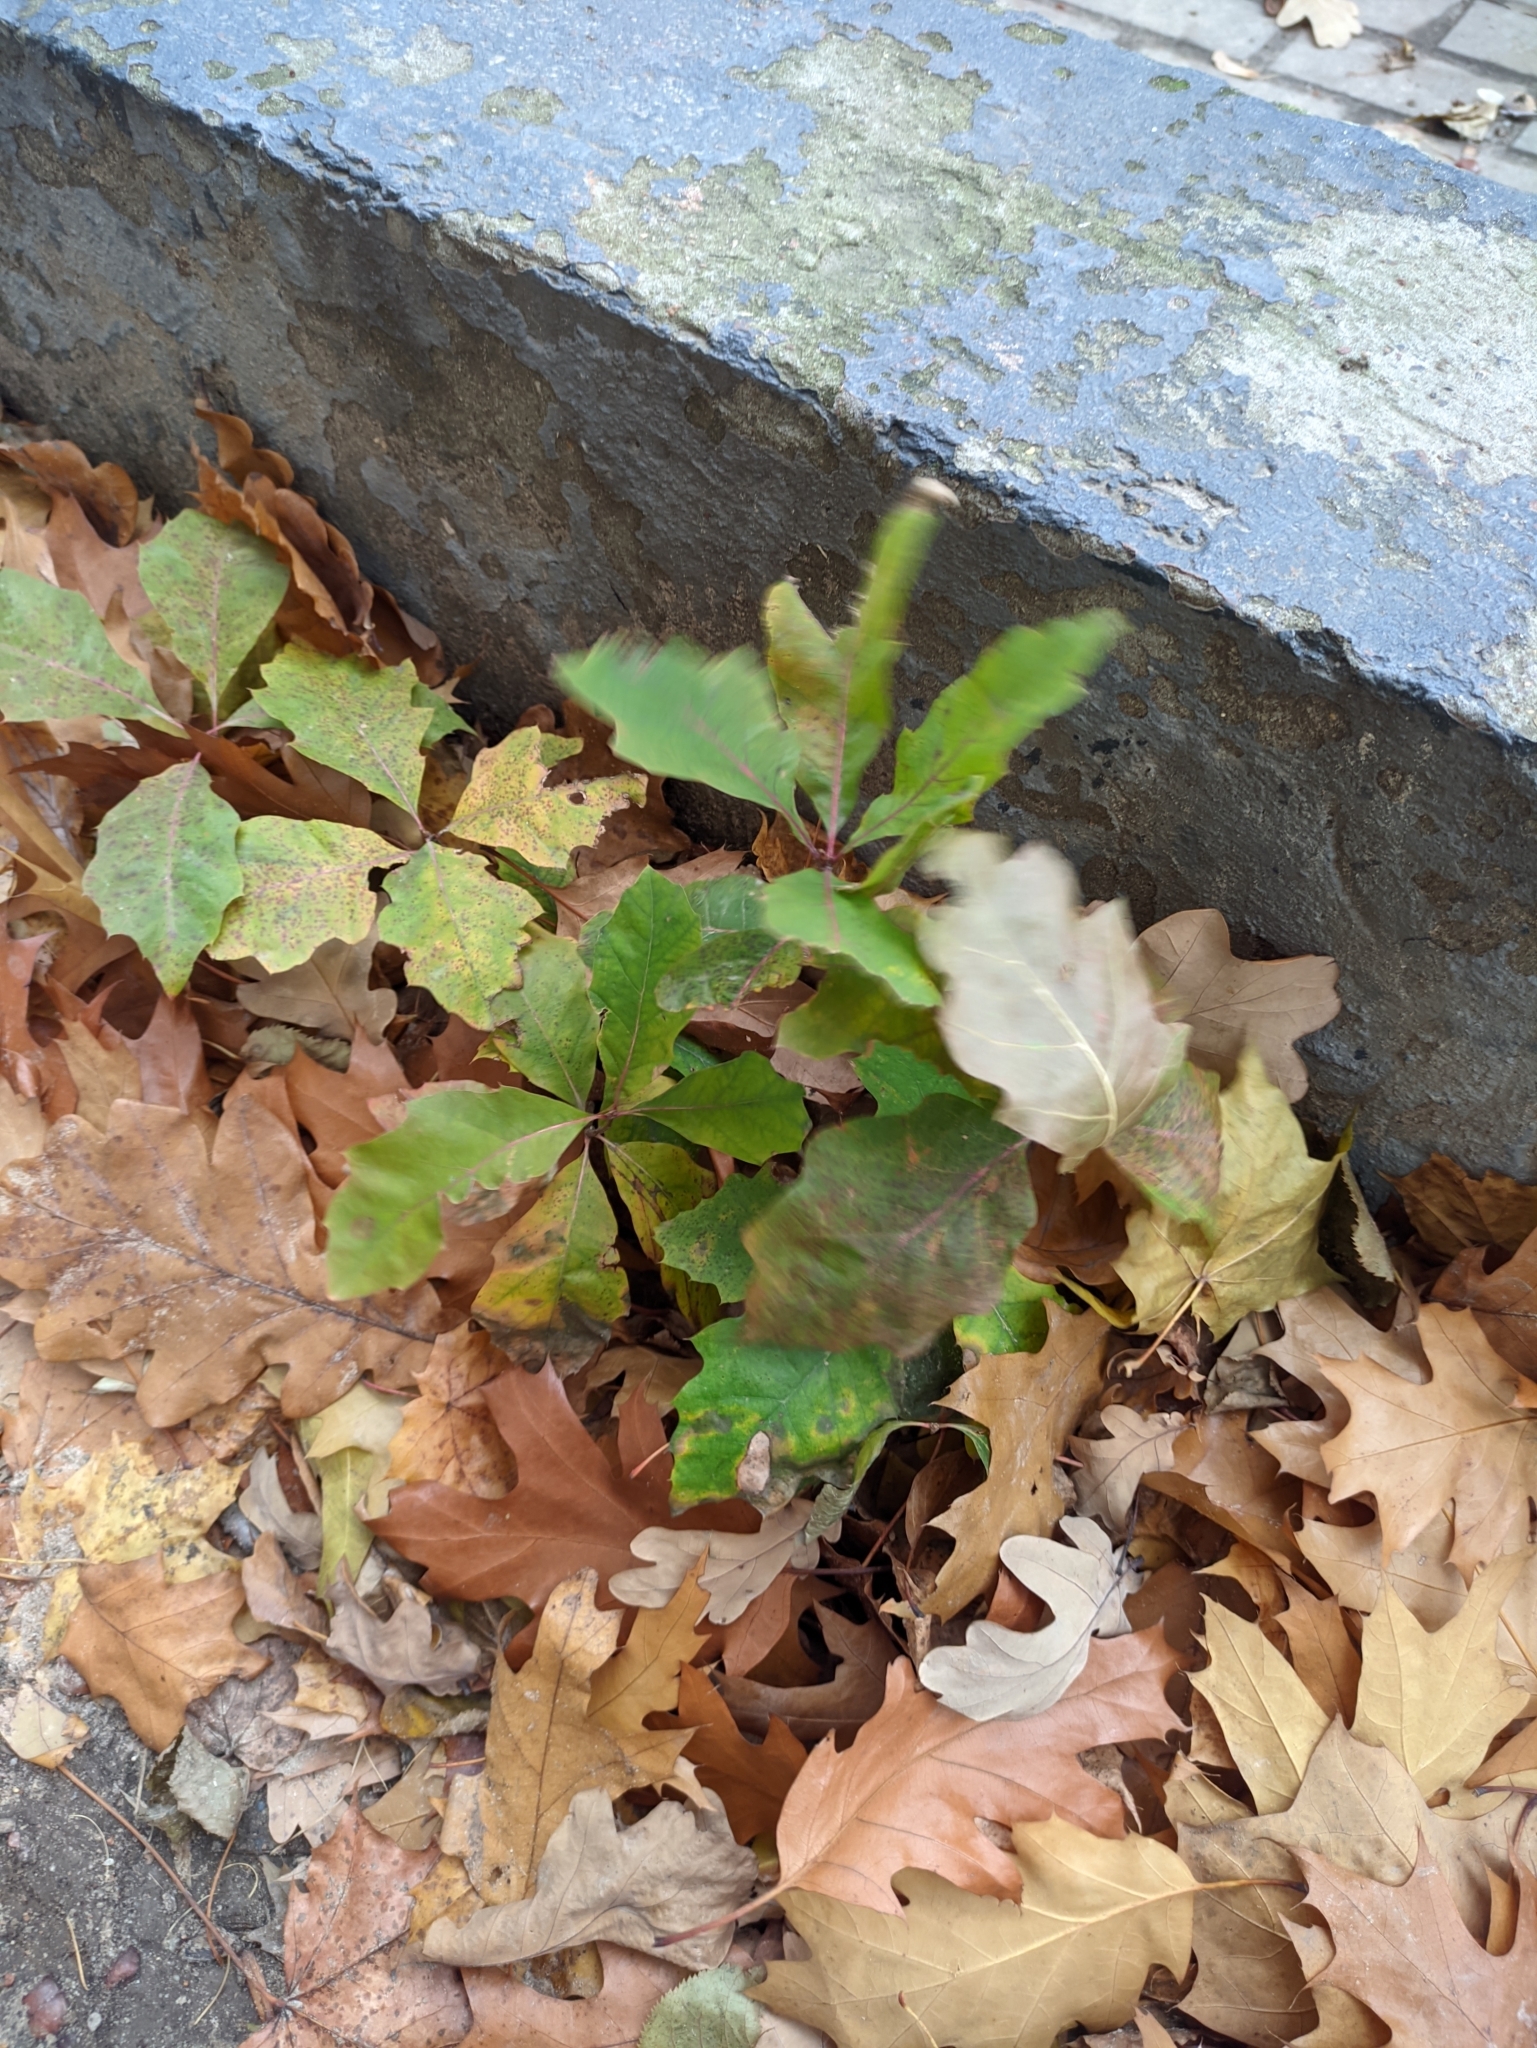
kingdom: Plantae
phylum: Tracheophyta
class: Magnoliopsida
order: Fagales
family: Fagaceae
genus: Quercus
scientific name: Quercus rubra
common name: Red oak
